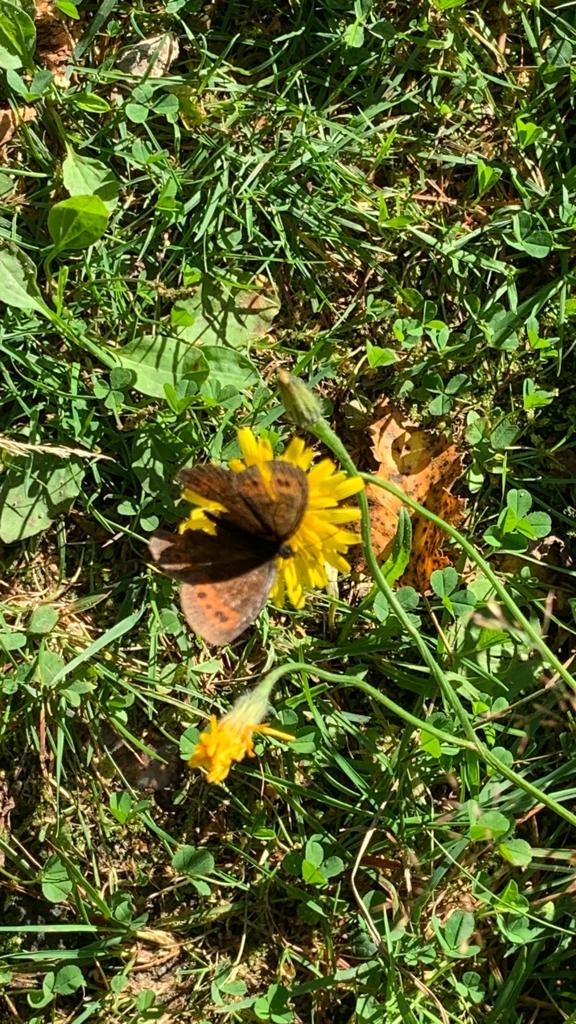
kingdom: Animalia
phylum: Arthropoda
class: Insecta
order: Lepidoptera
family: Nymphalidae
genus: Erebia
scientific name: Erebia ligea
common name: Arran brown
